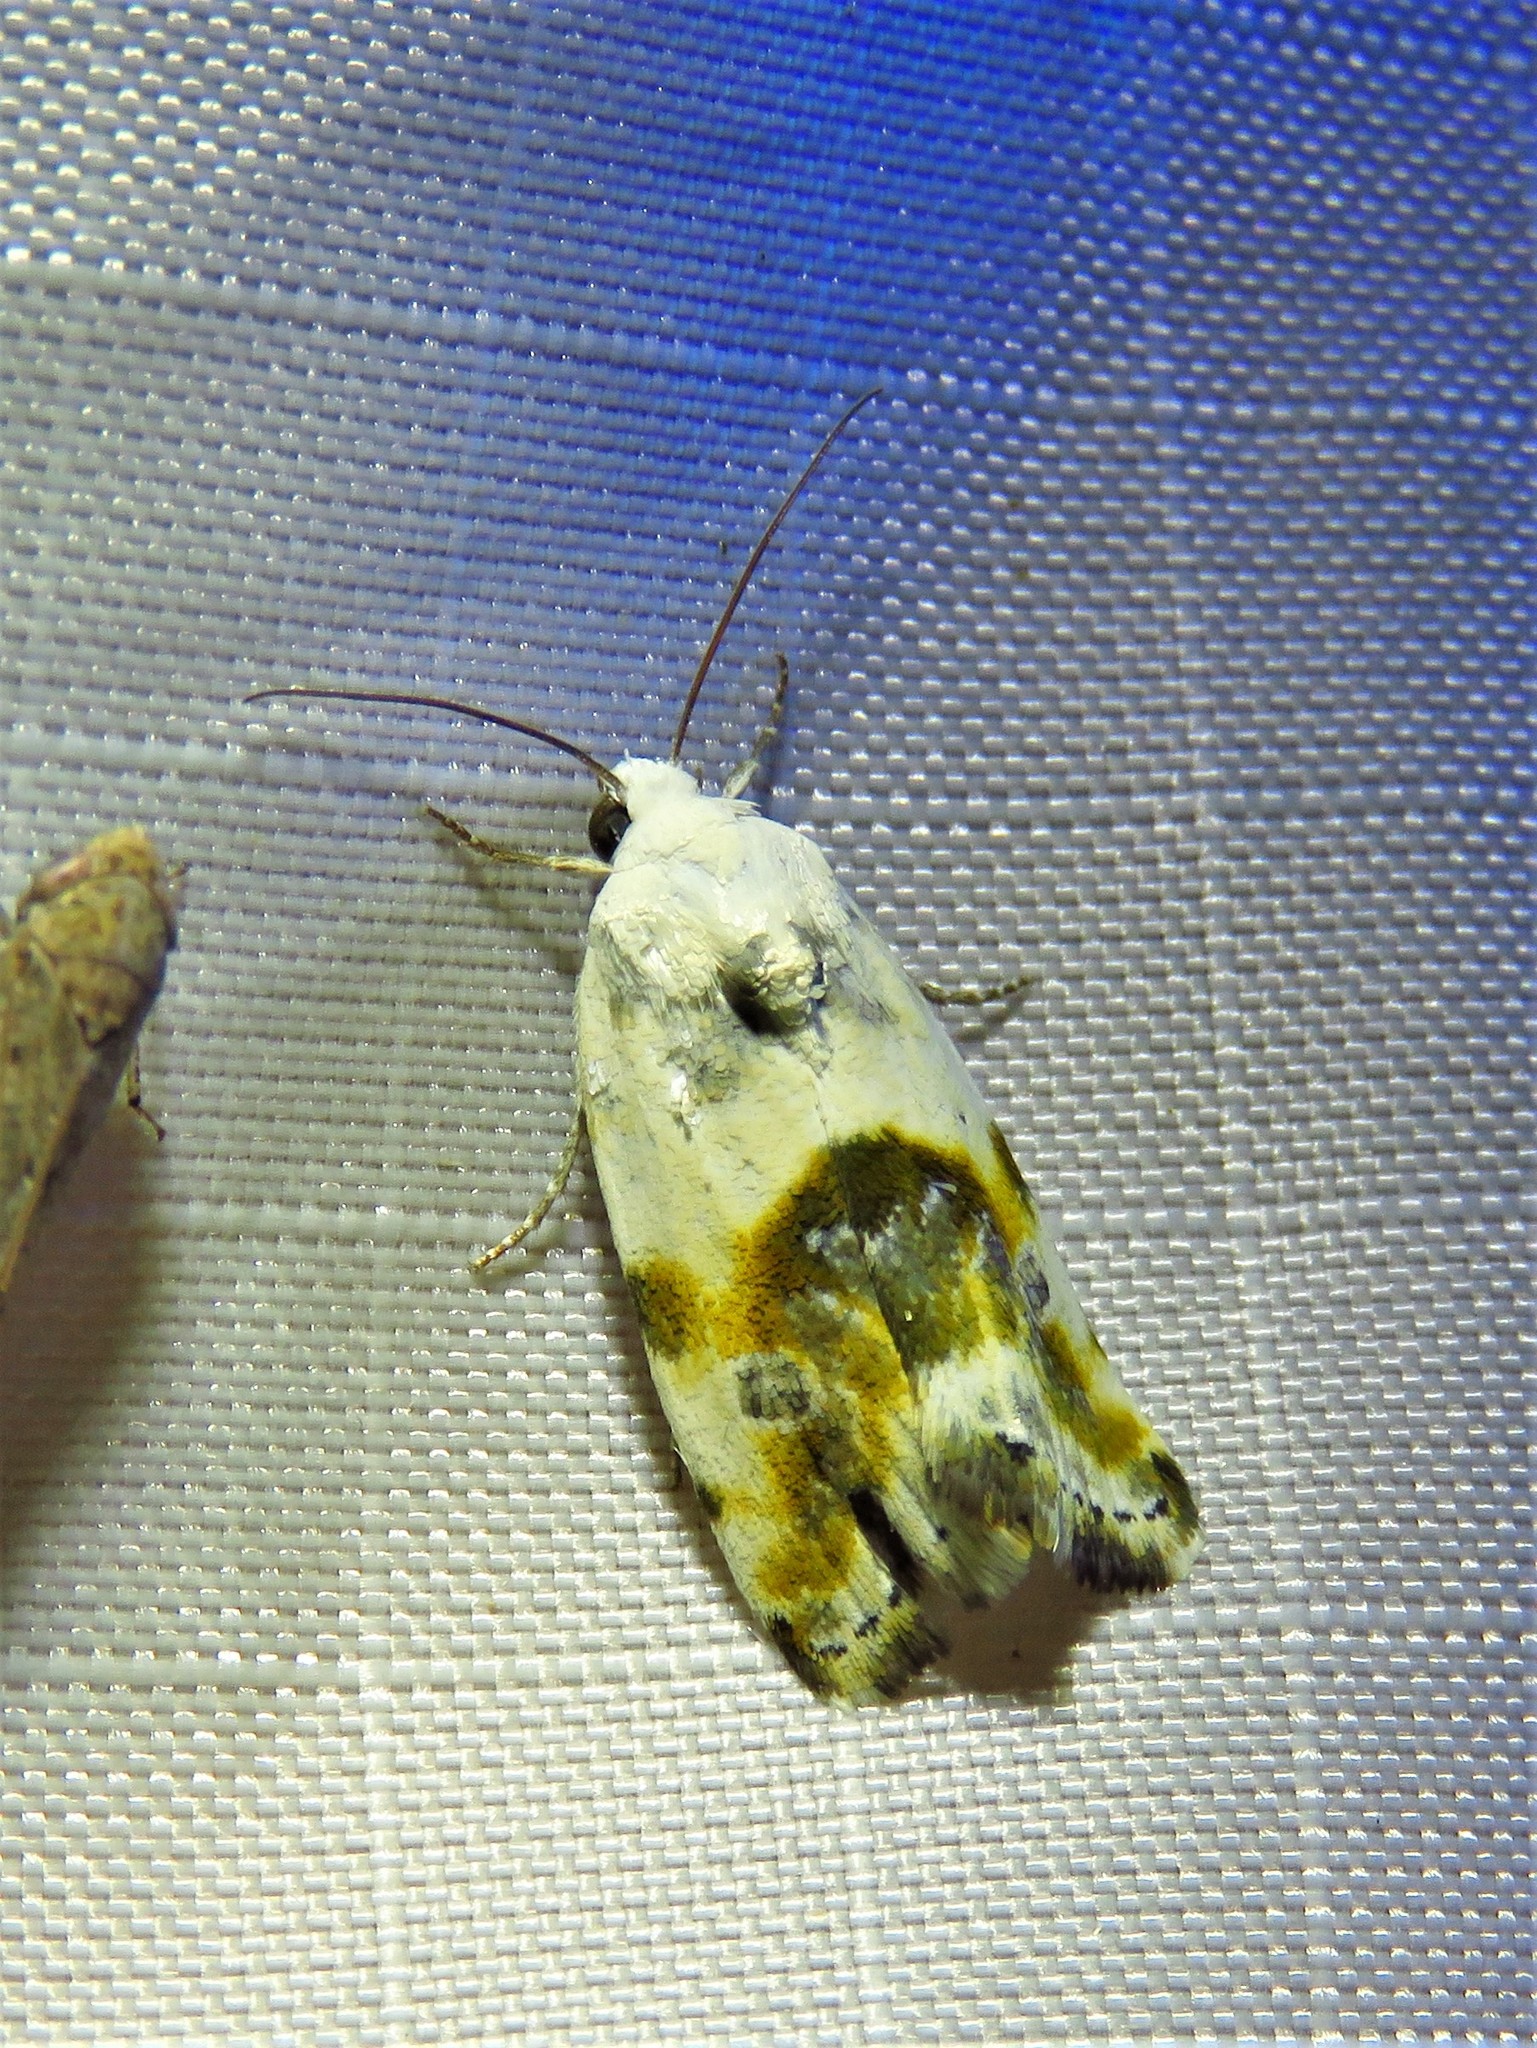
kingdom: Animalia
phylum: Arthropoda
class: Insecta
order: Lepidoptera
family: Noctuidae
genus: Acontia
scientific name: Acontia candefacta
